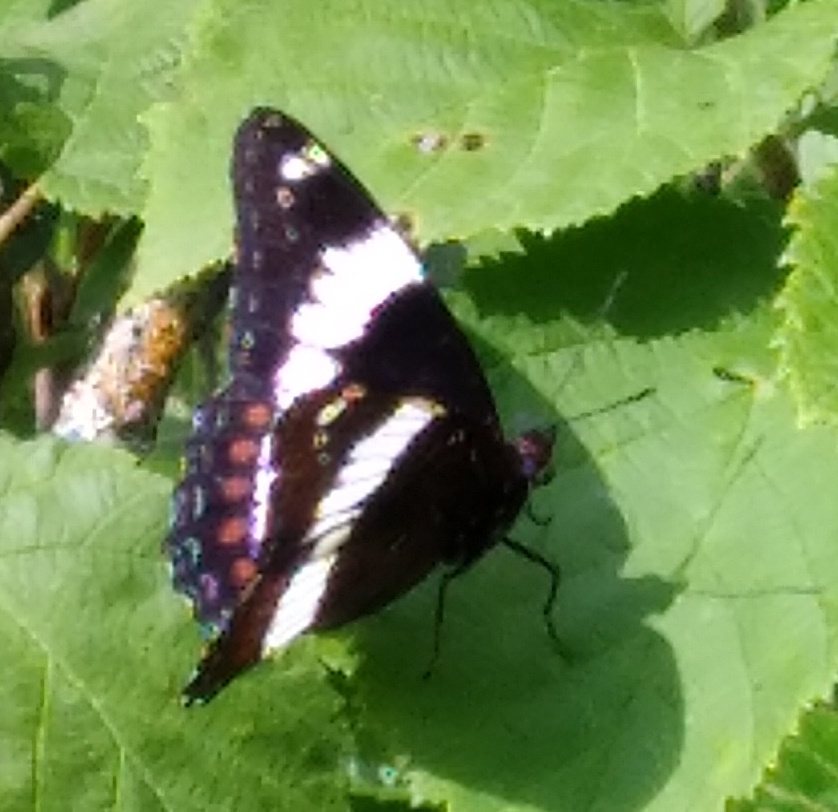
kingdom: Animalia
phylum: Arthropoda
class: Insecta
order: Lepidoptera
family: Nymphalidae
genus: Limenitis
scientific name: Limenitis arthemis
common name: Red-spotted admiral
